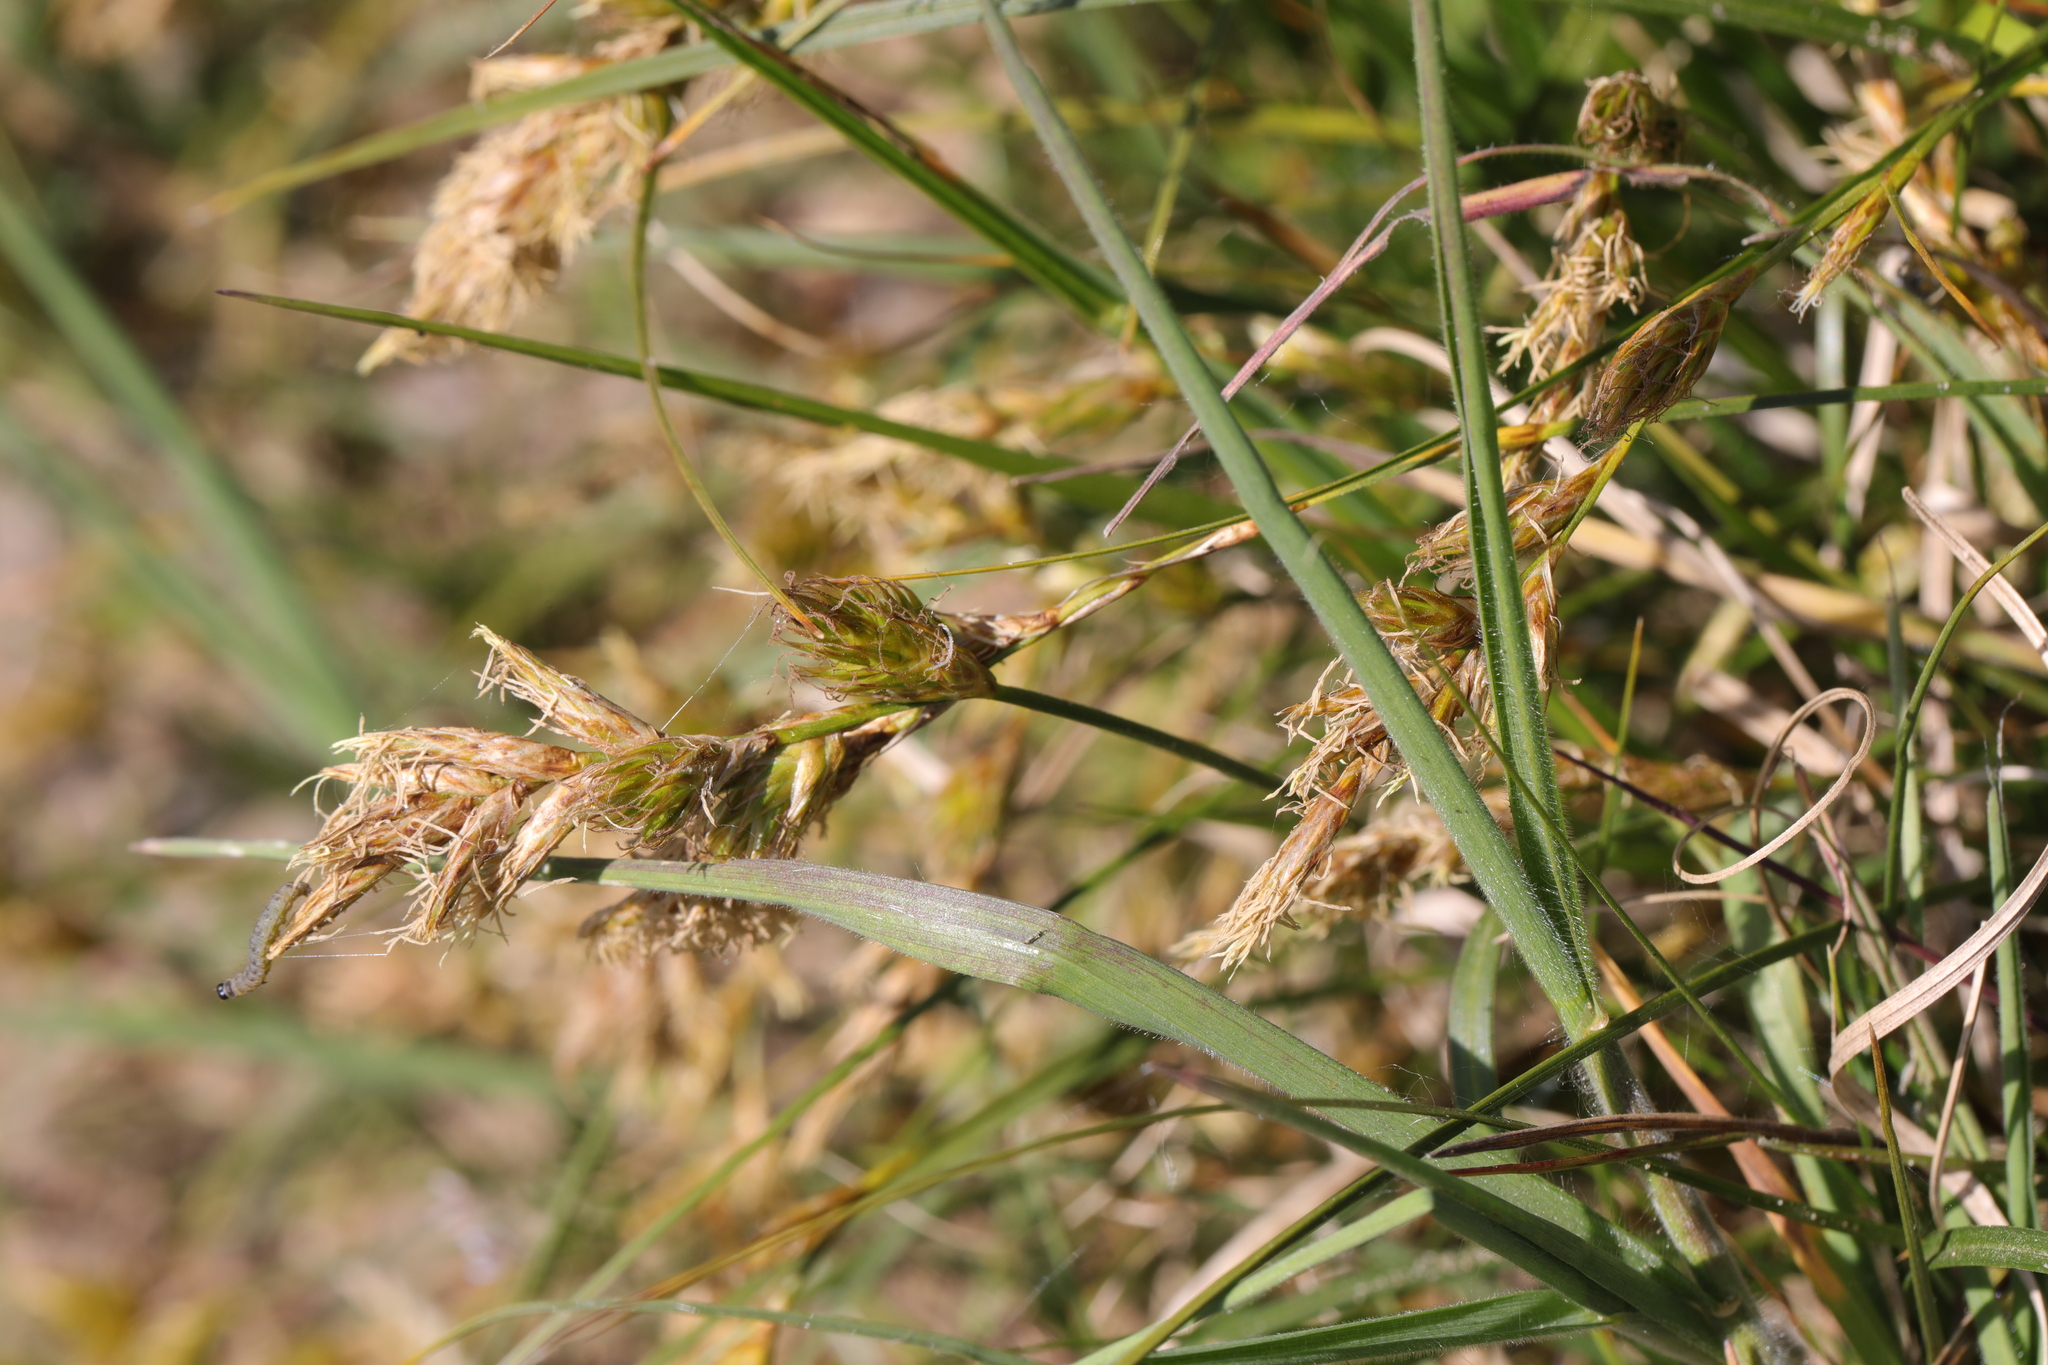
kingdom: Plantae
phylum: Tracheophyta
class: Liliopsida
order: Poales
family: Cyperaceae
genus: Carex
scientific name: Carex arenaria
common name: Sand sedge
